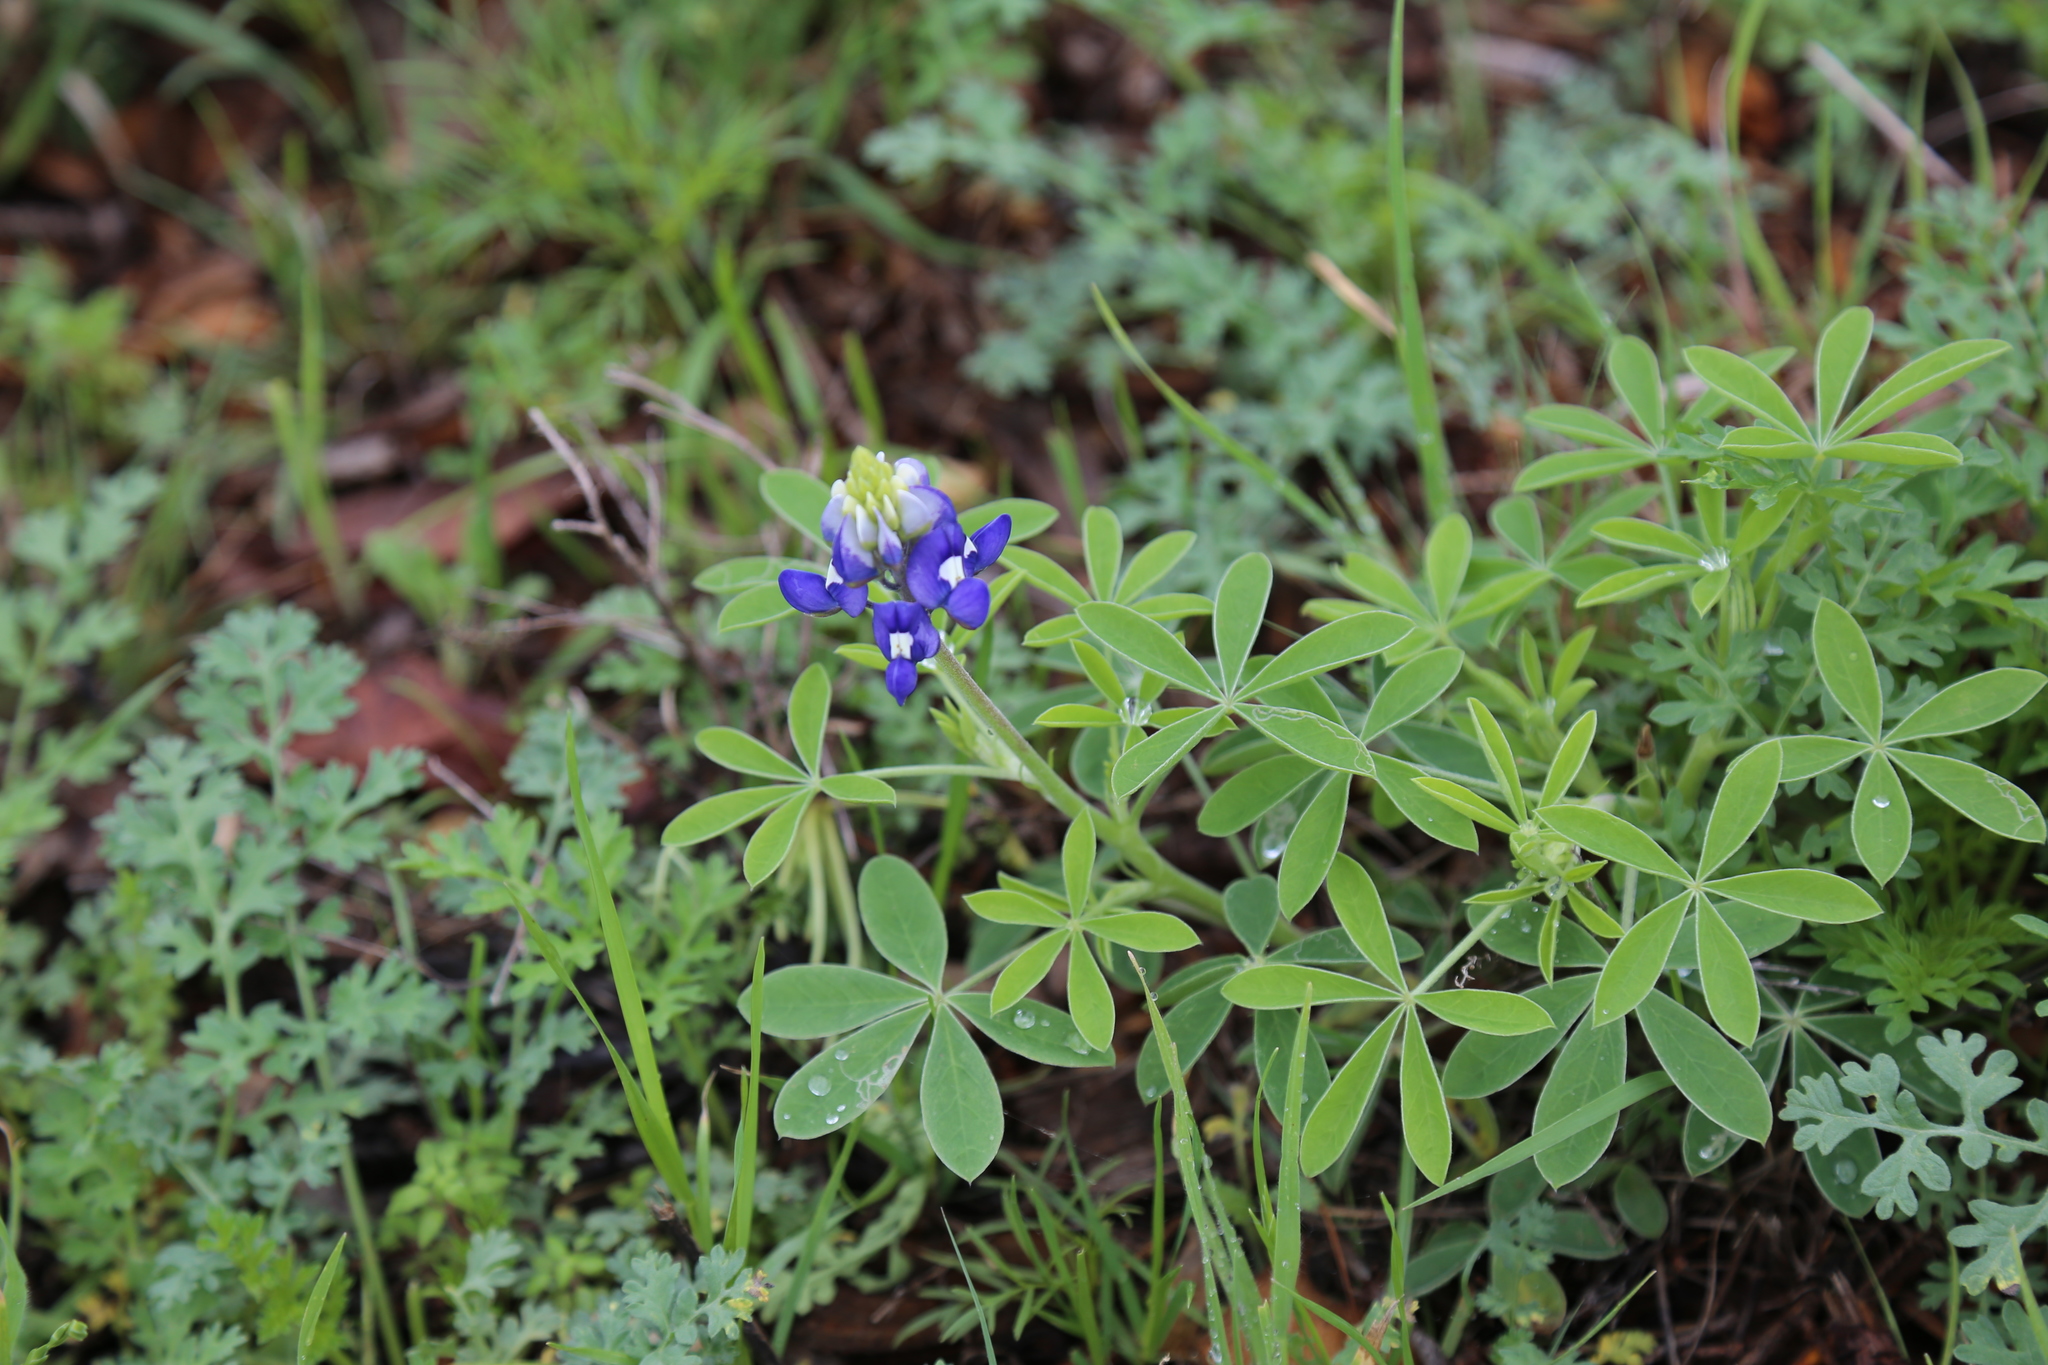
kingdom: Plantae
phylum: Tracheophyta
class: Magnoliopsida
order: Fabales
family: Fabaceae
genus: Lupinus
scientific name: Lupinus texensis
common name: Texas bluebonnet
